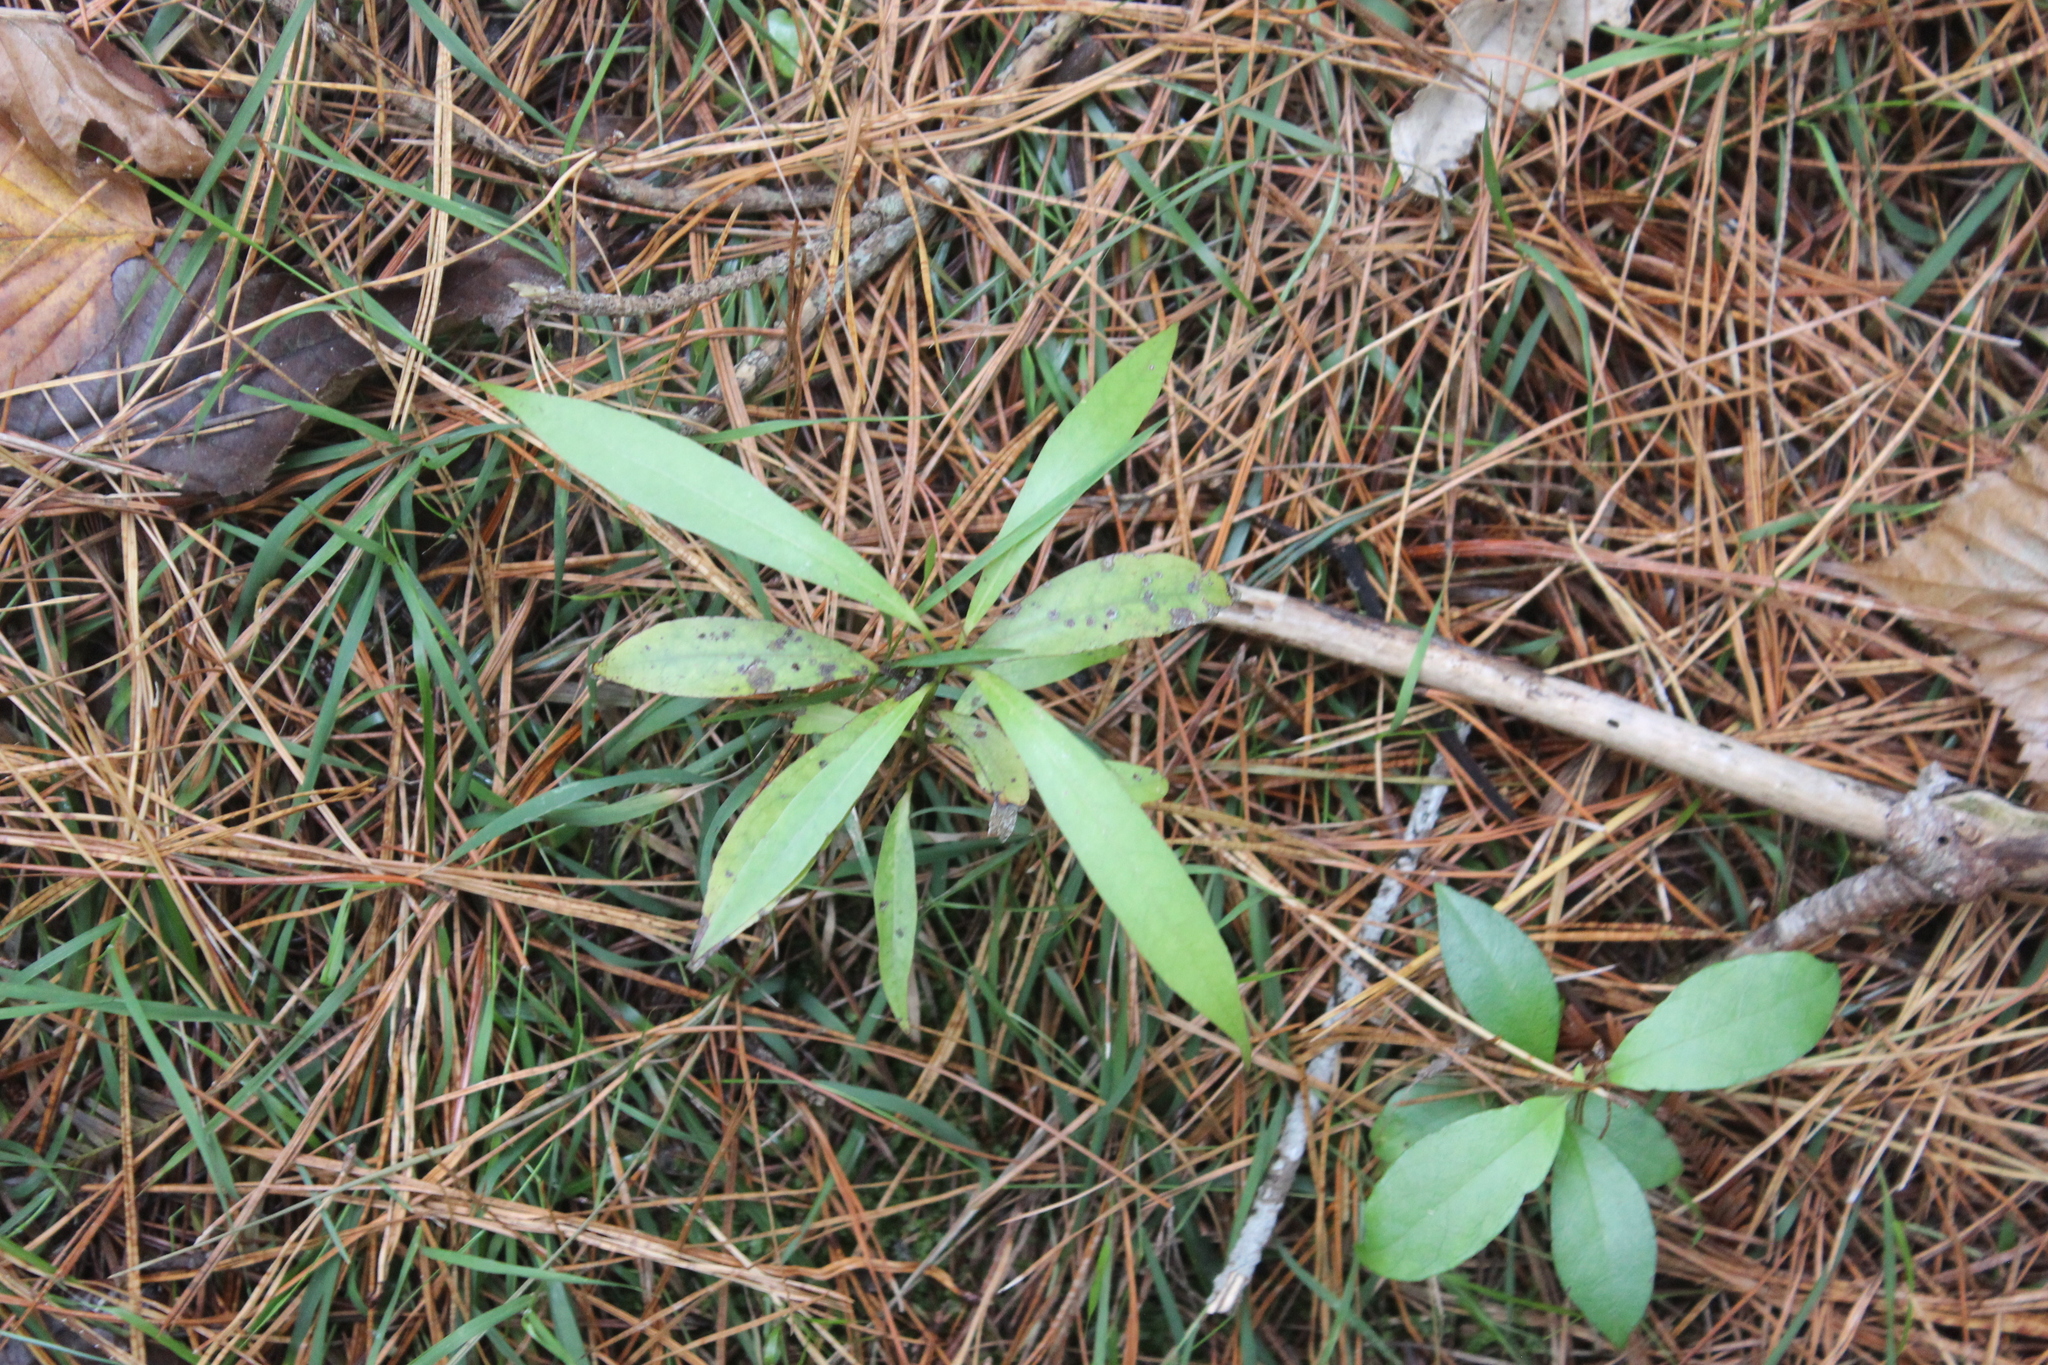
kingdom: Plantae
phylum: Tracheophyta
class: Magnoliopsida
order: Laurales
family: Lauraceae
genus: Beilschmiedia
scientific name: Beilschmiedia tawa
